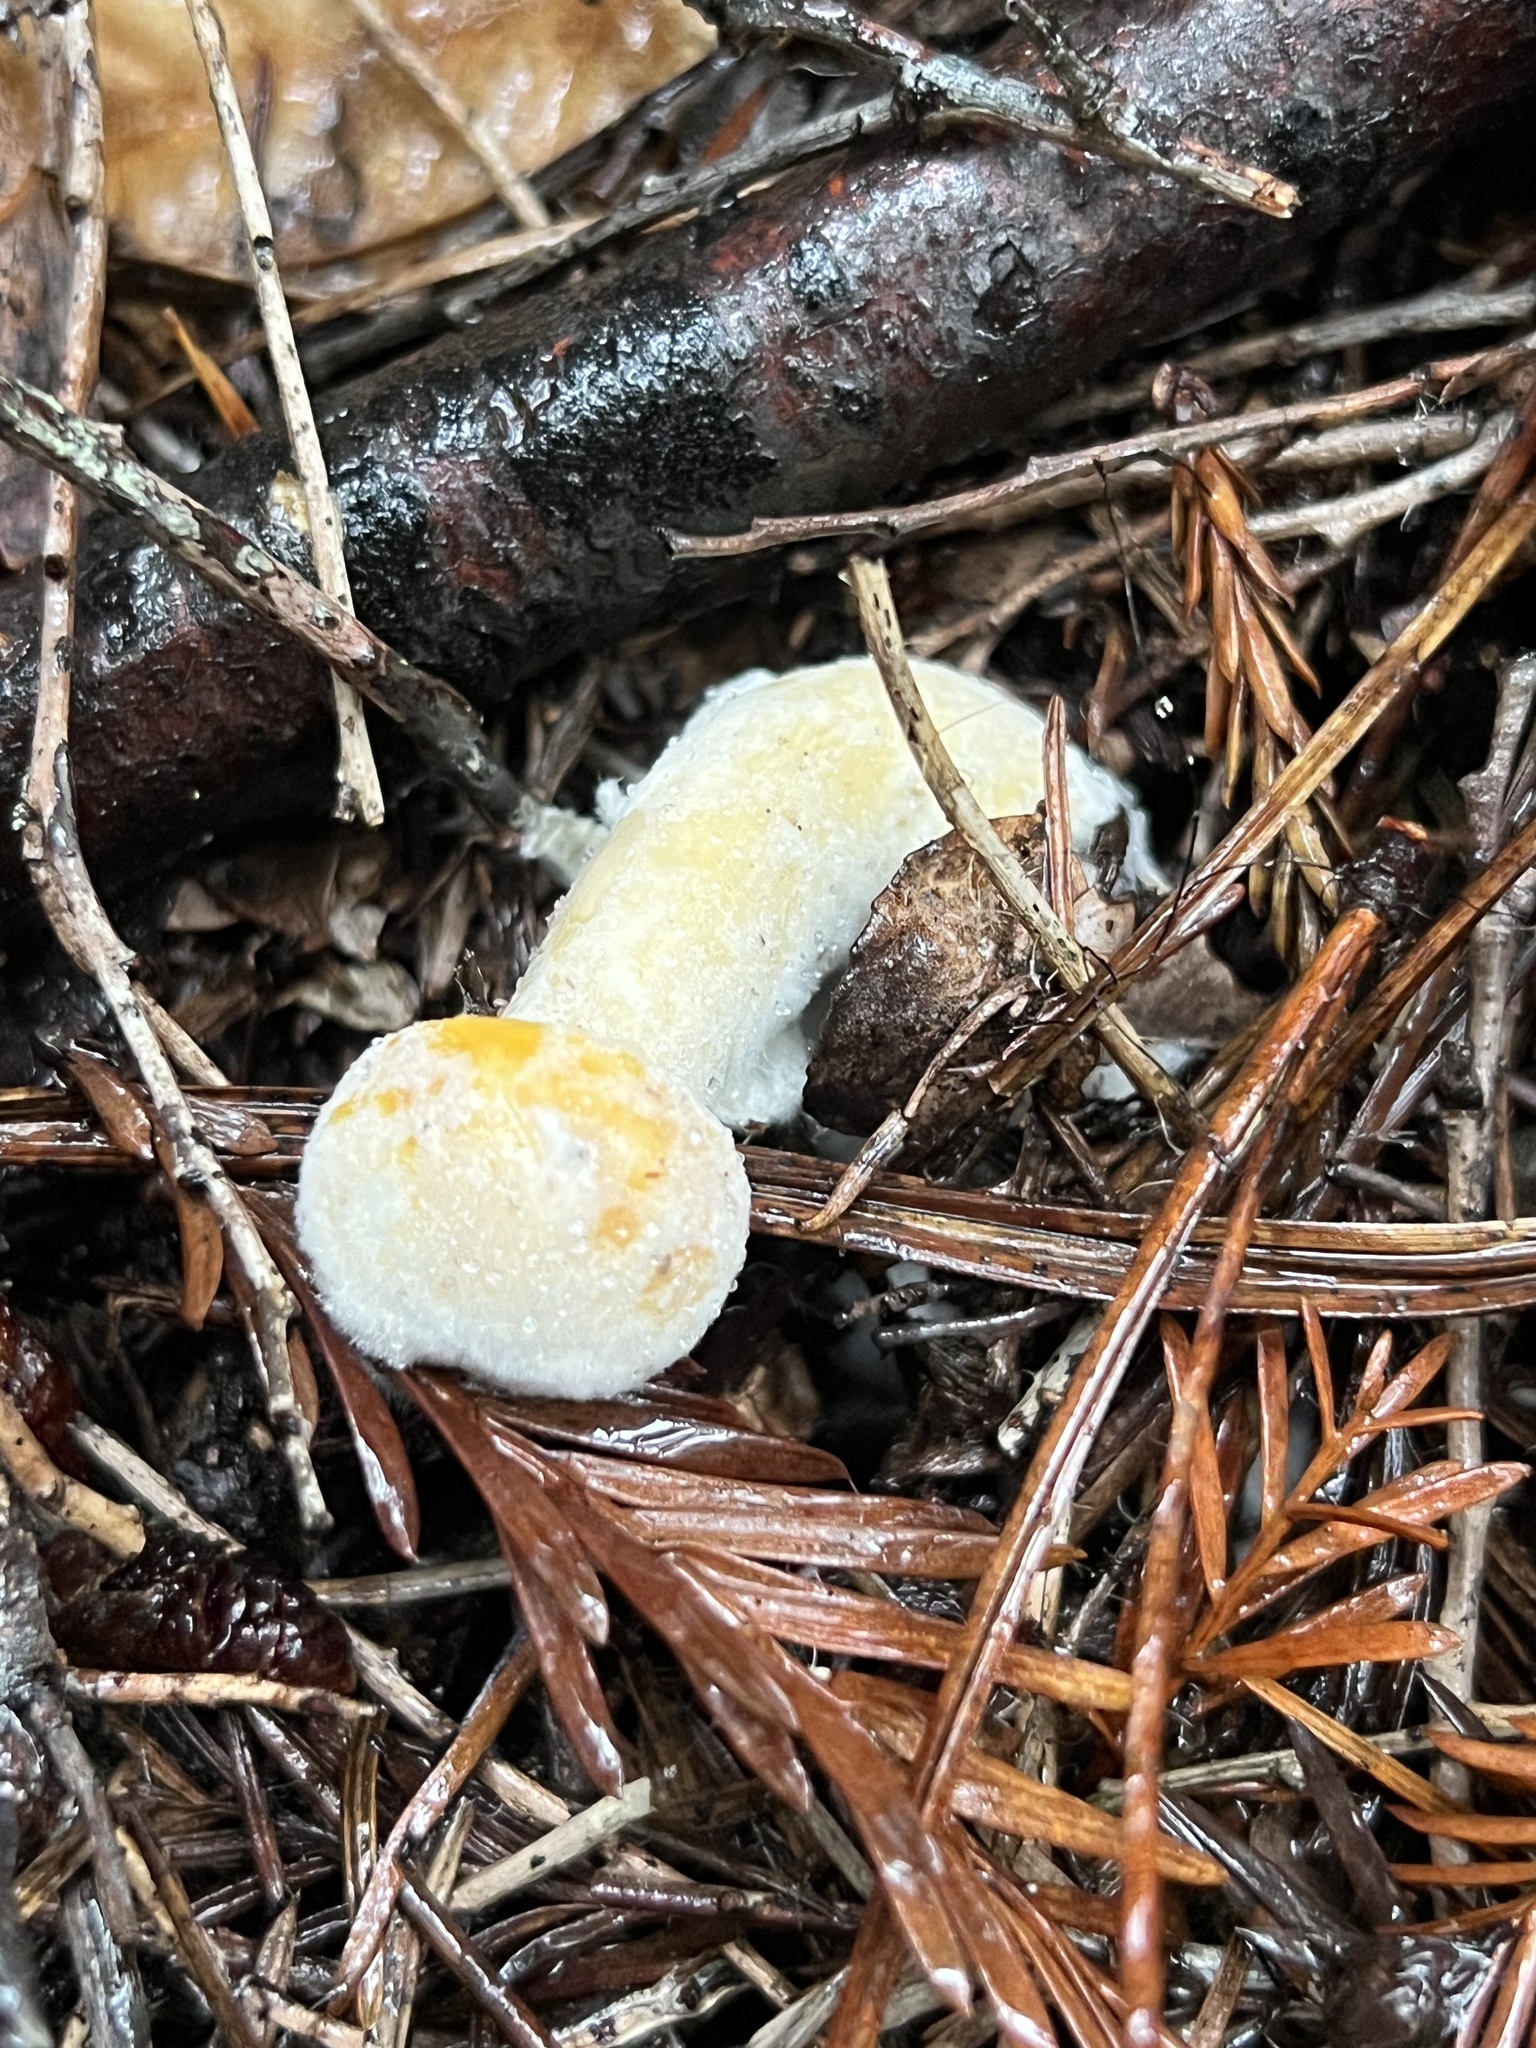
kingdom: Fungi
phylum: Ascomycota
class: Sordariomycetes
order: Hypocreales
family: Hypocreaceae
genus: Hypomyces
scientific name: Hypomyces chrysospermus
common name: Bolete mould
